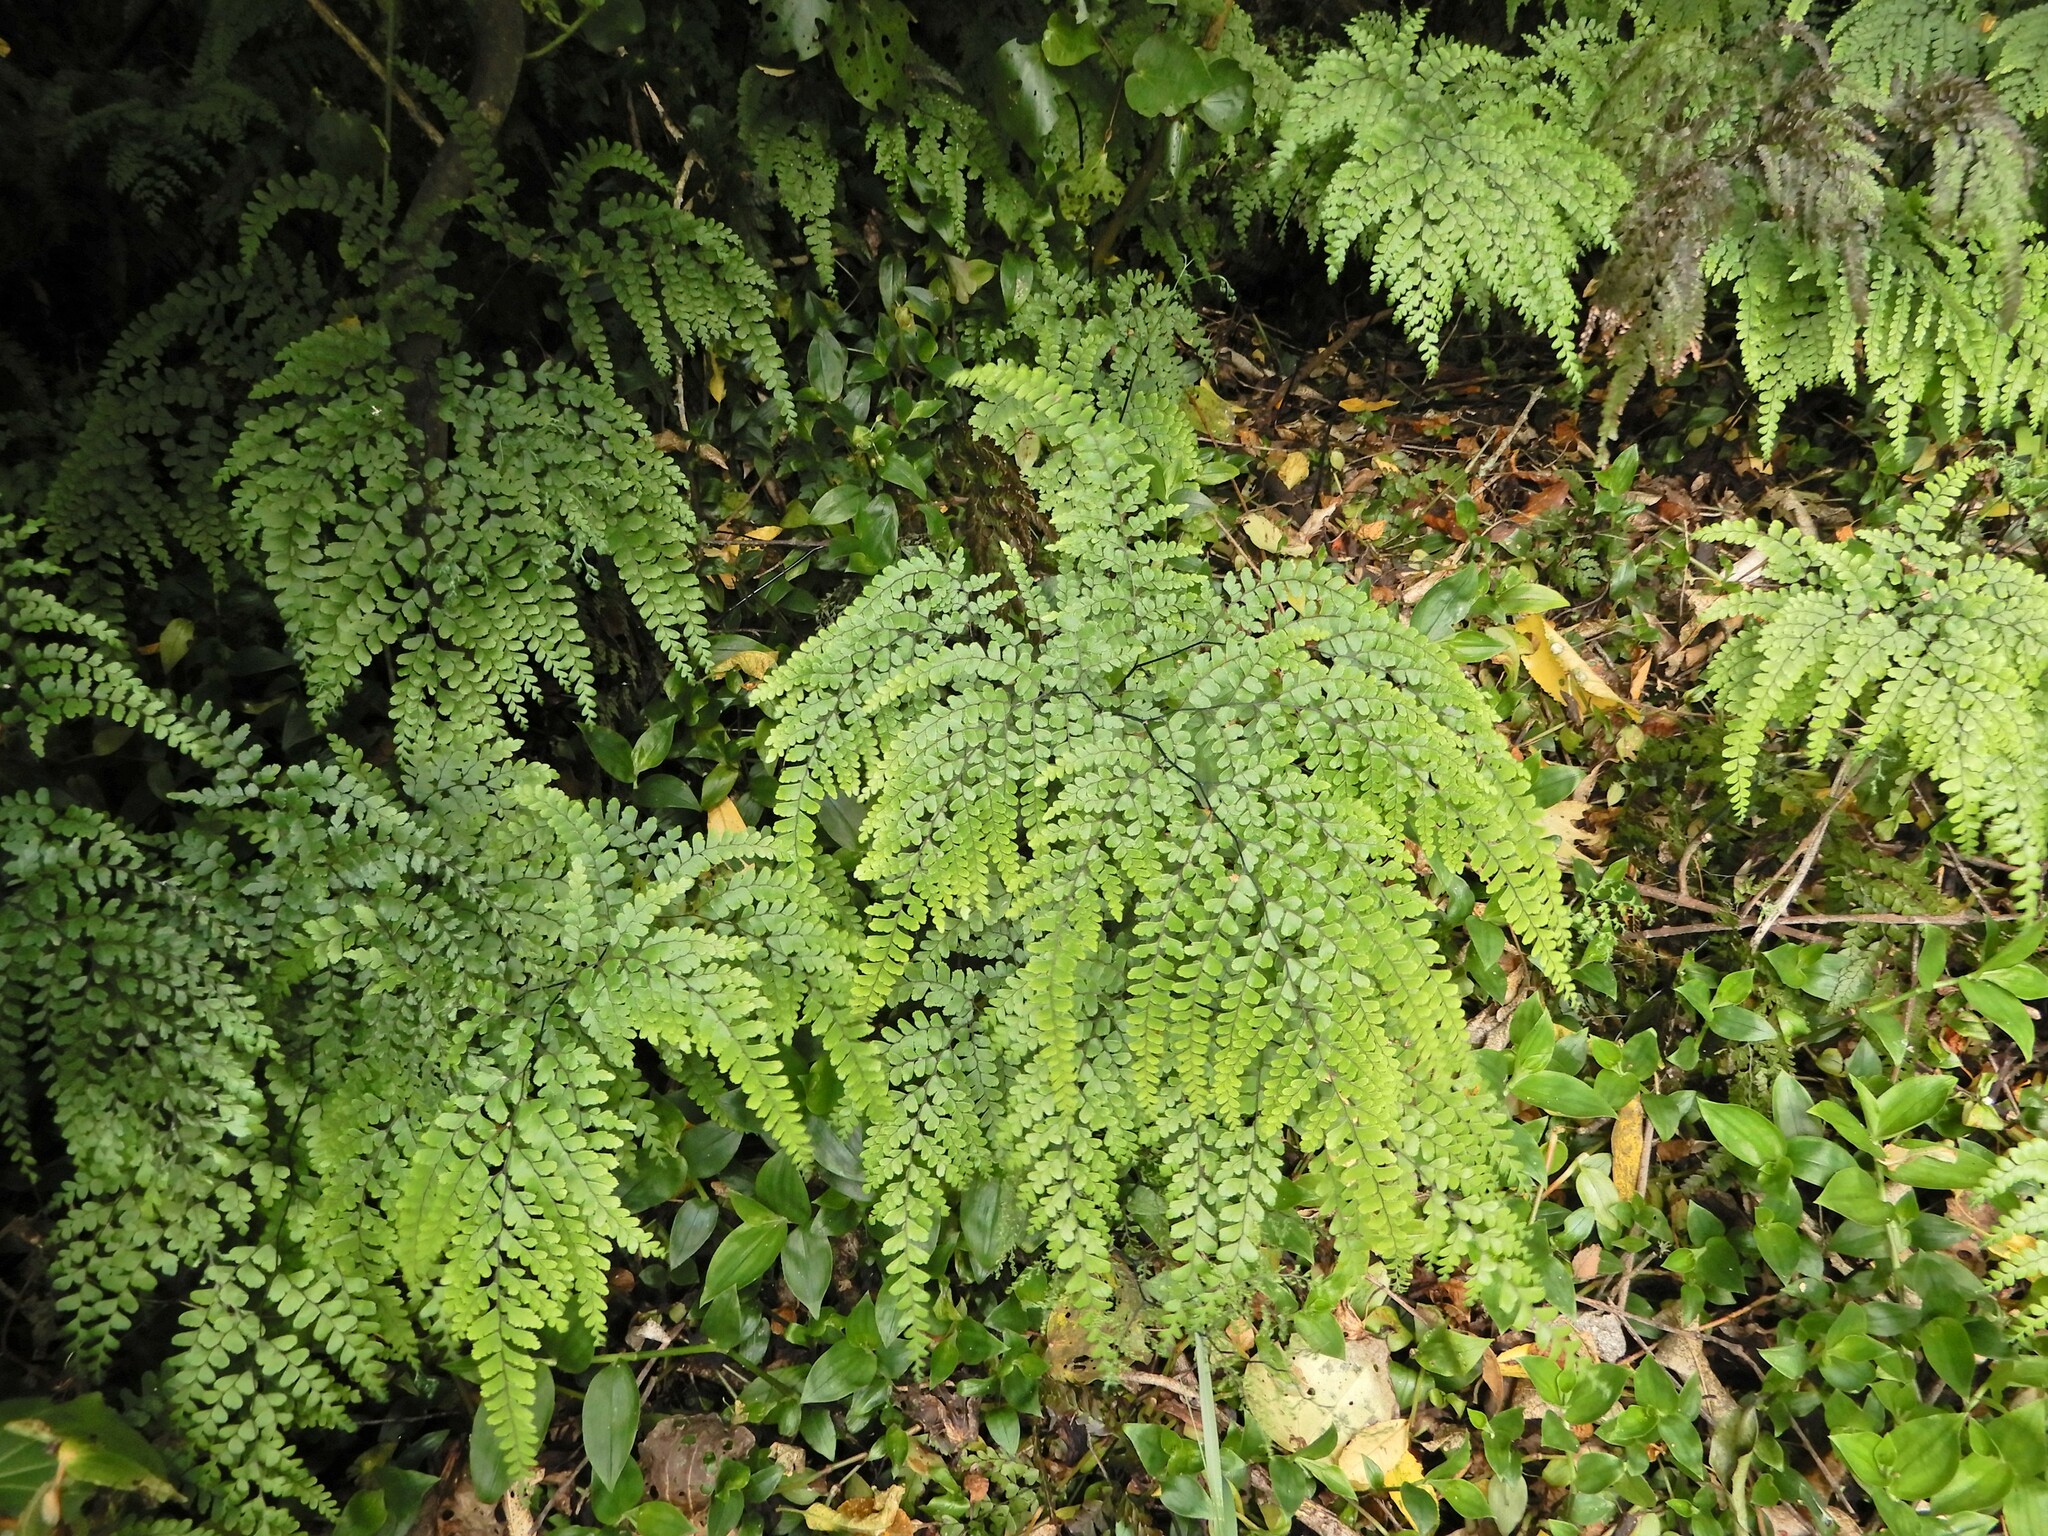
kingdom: Plantae
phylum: Tracheophyta
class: Polypodiopsida
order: Polypodiales
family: Pteridaceae
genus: Adiantum
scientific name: Adiantum formosum
